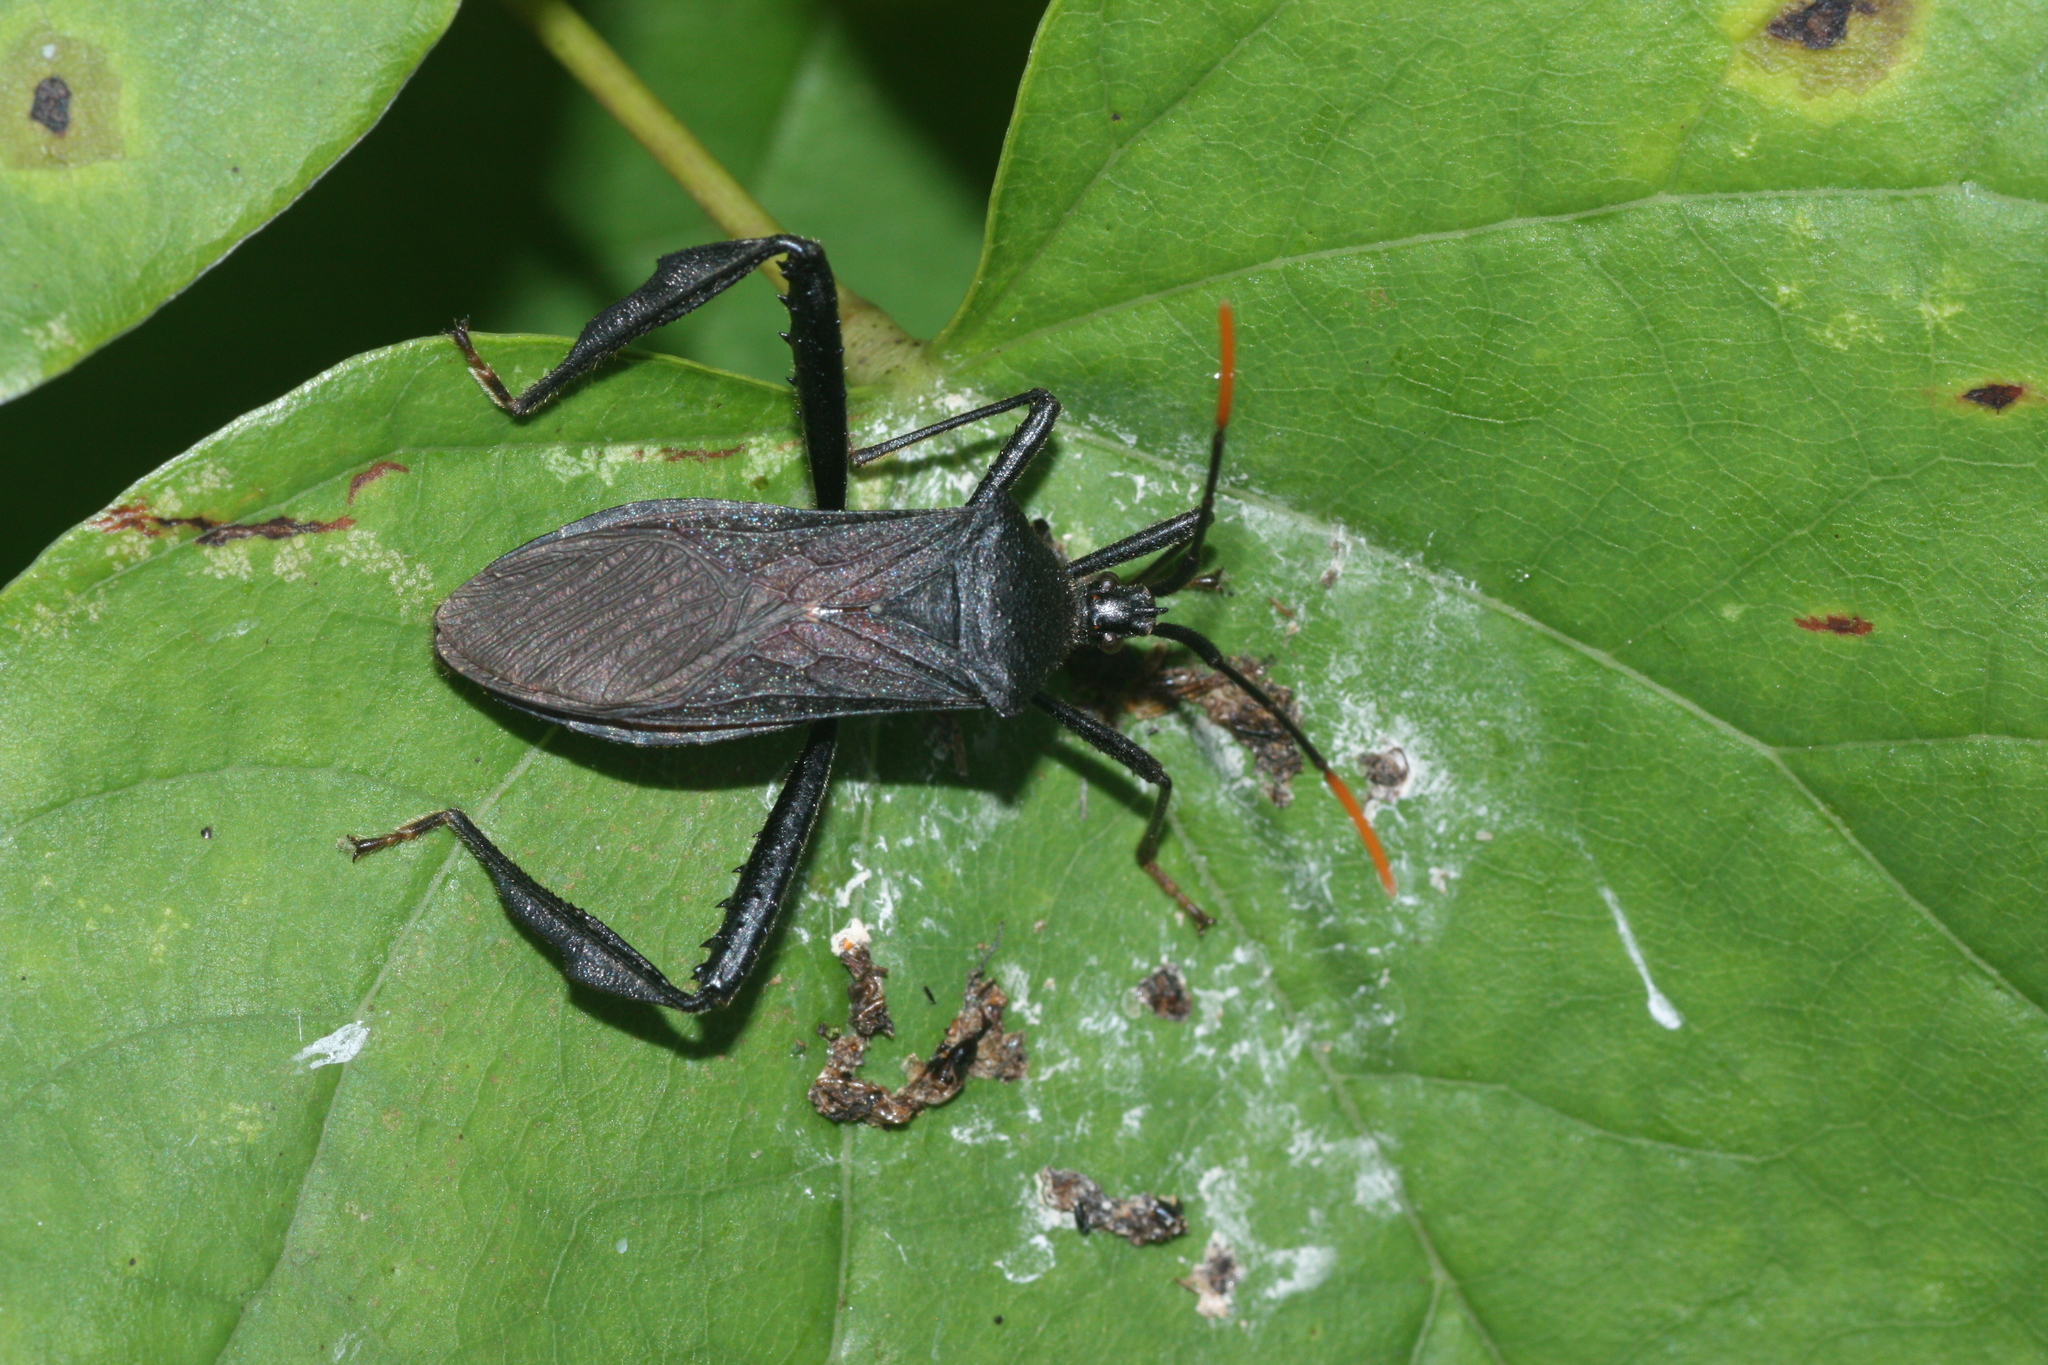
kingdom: Animalia
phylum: Arthropoda
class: Insecta
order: Hemiptera
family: Coreidae
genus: Acanthocephala
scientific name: Acanthocephala terminalis
